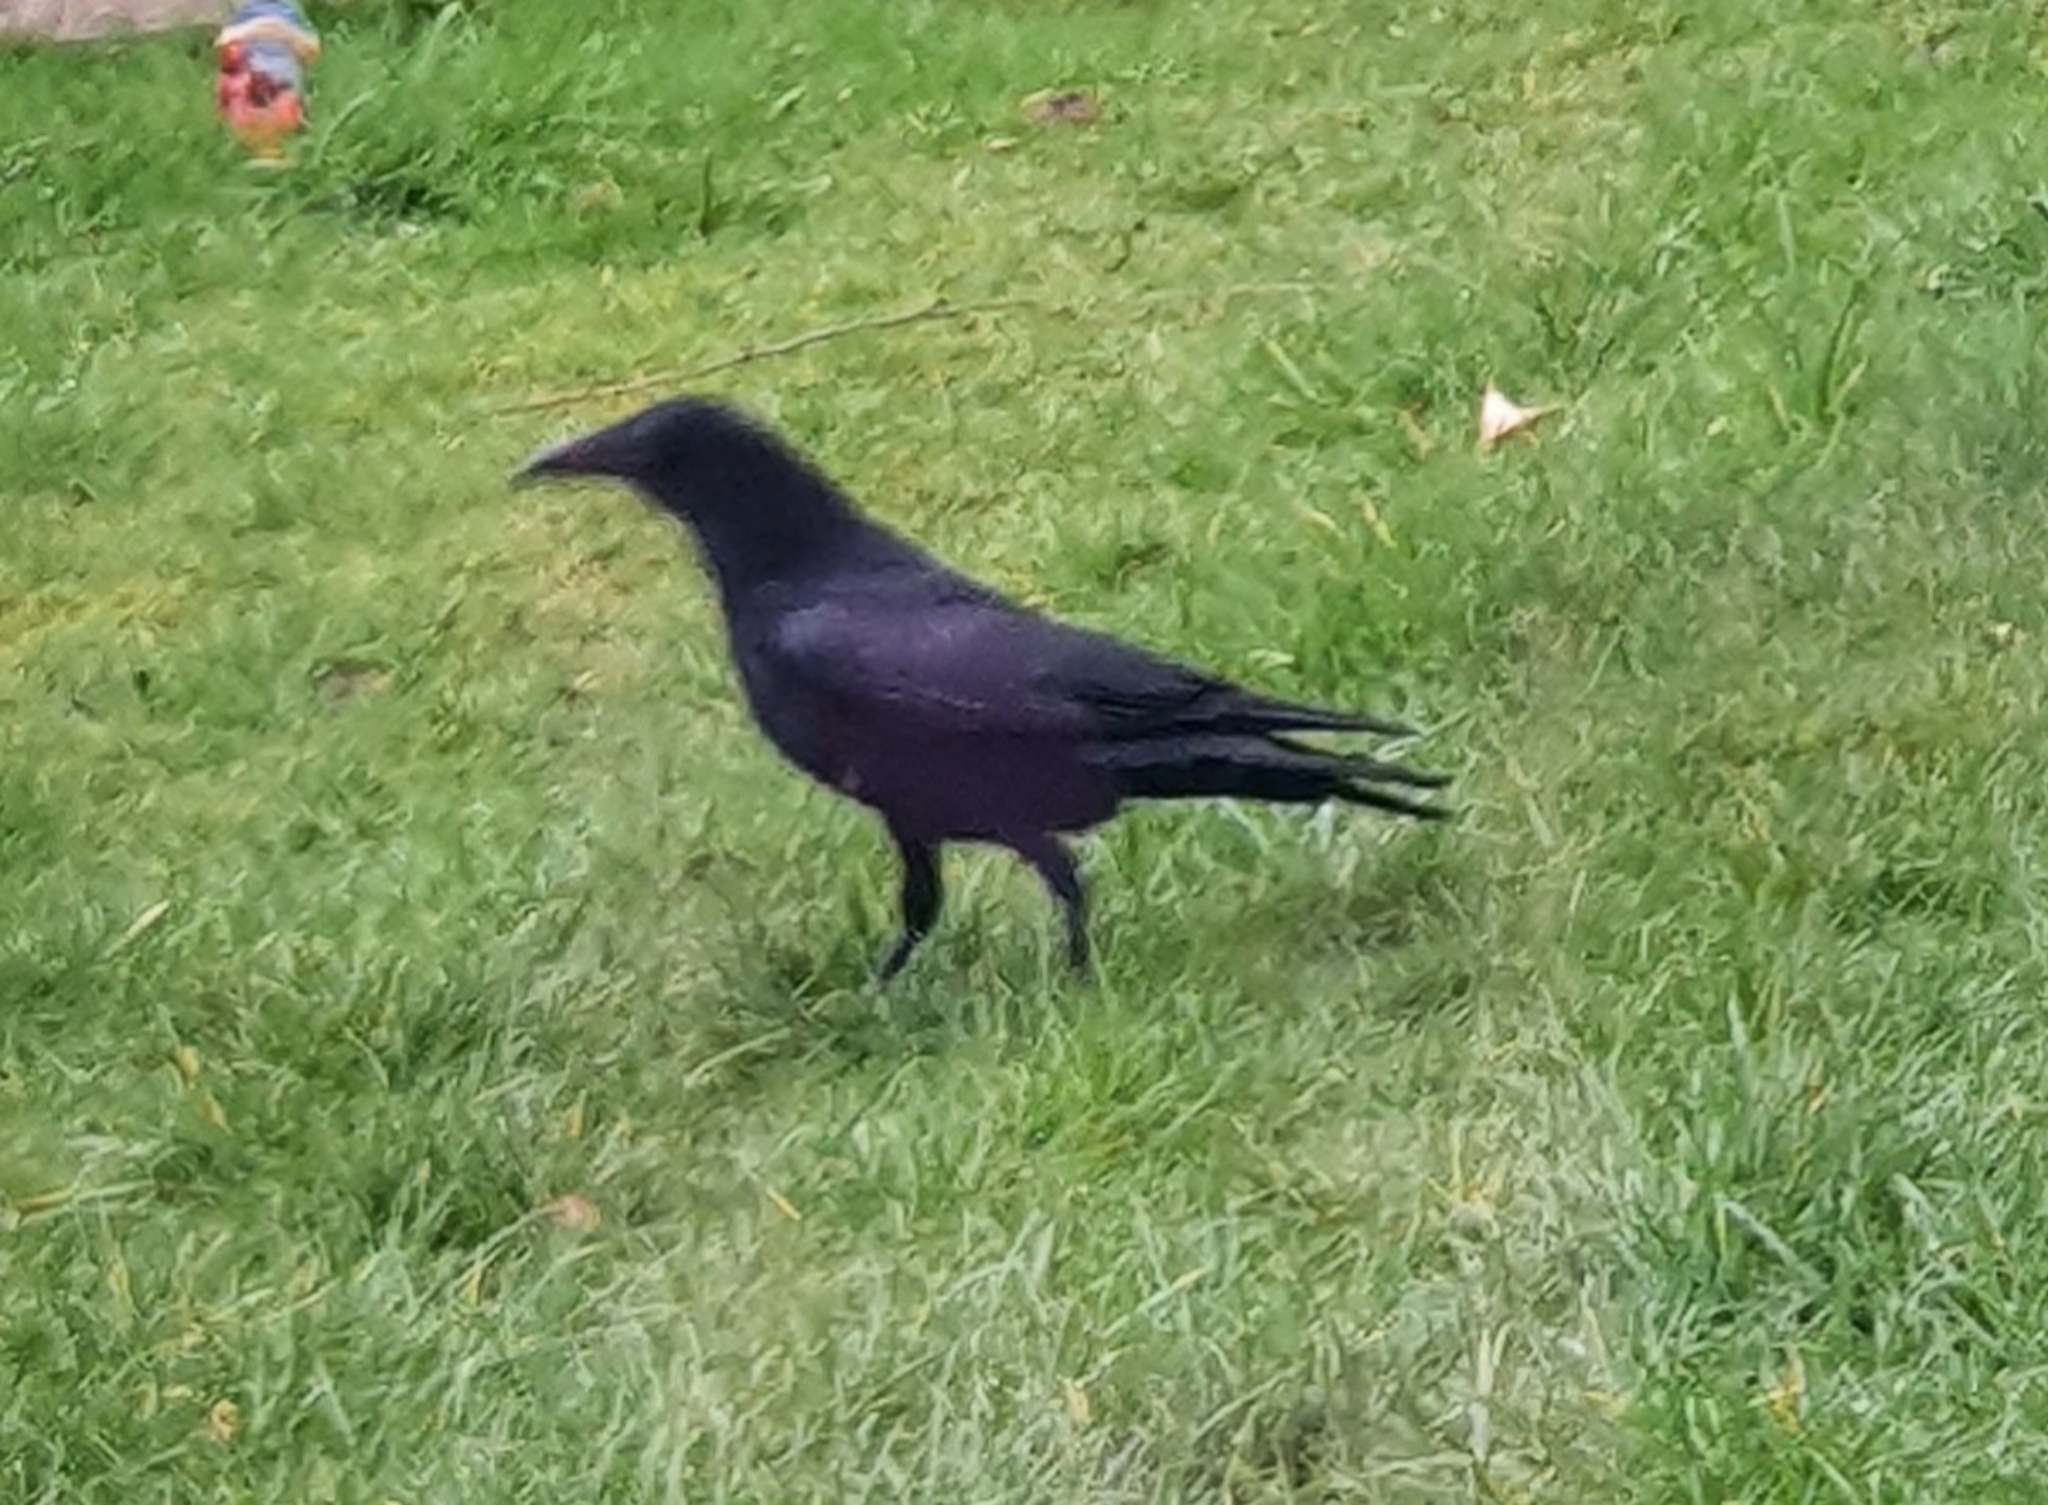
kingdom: Animalia
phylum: Chordata
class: Aves
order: Passeriformes
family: Corvidae
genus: Corvus
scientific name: Corvus corone
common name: Carrion crow
